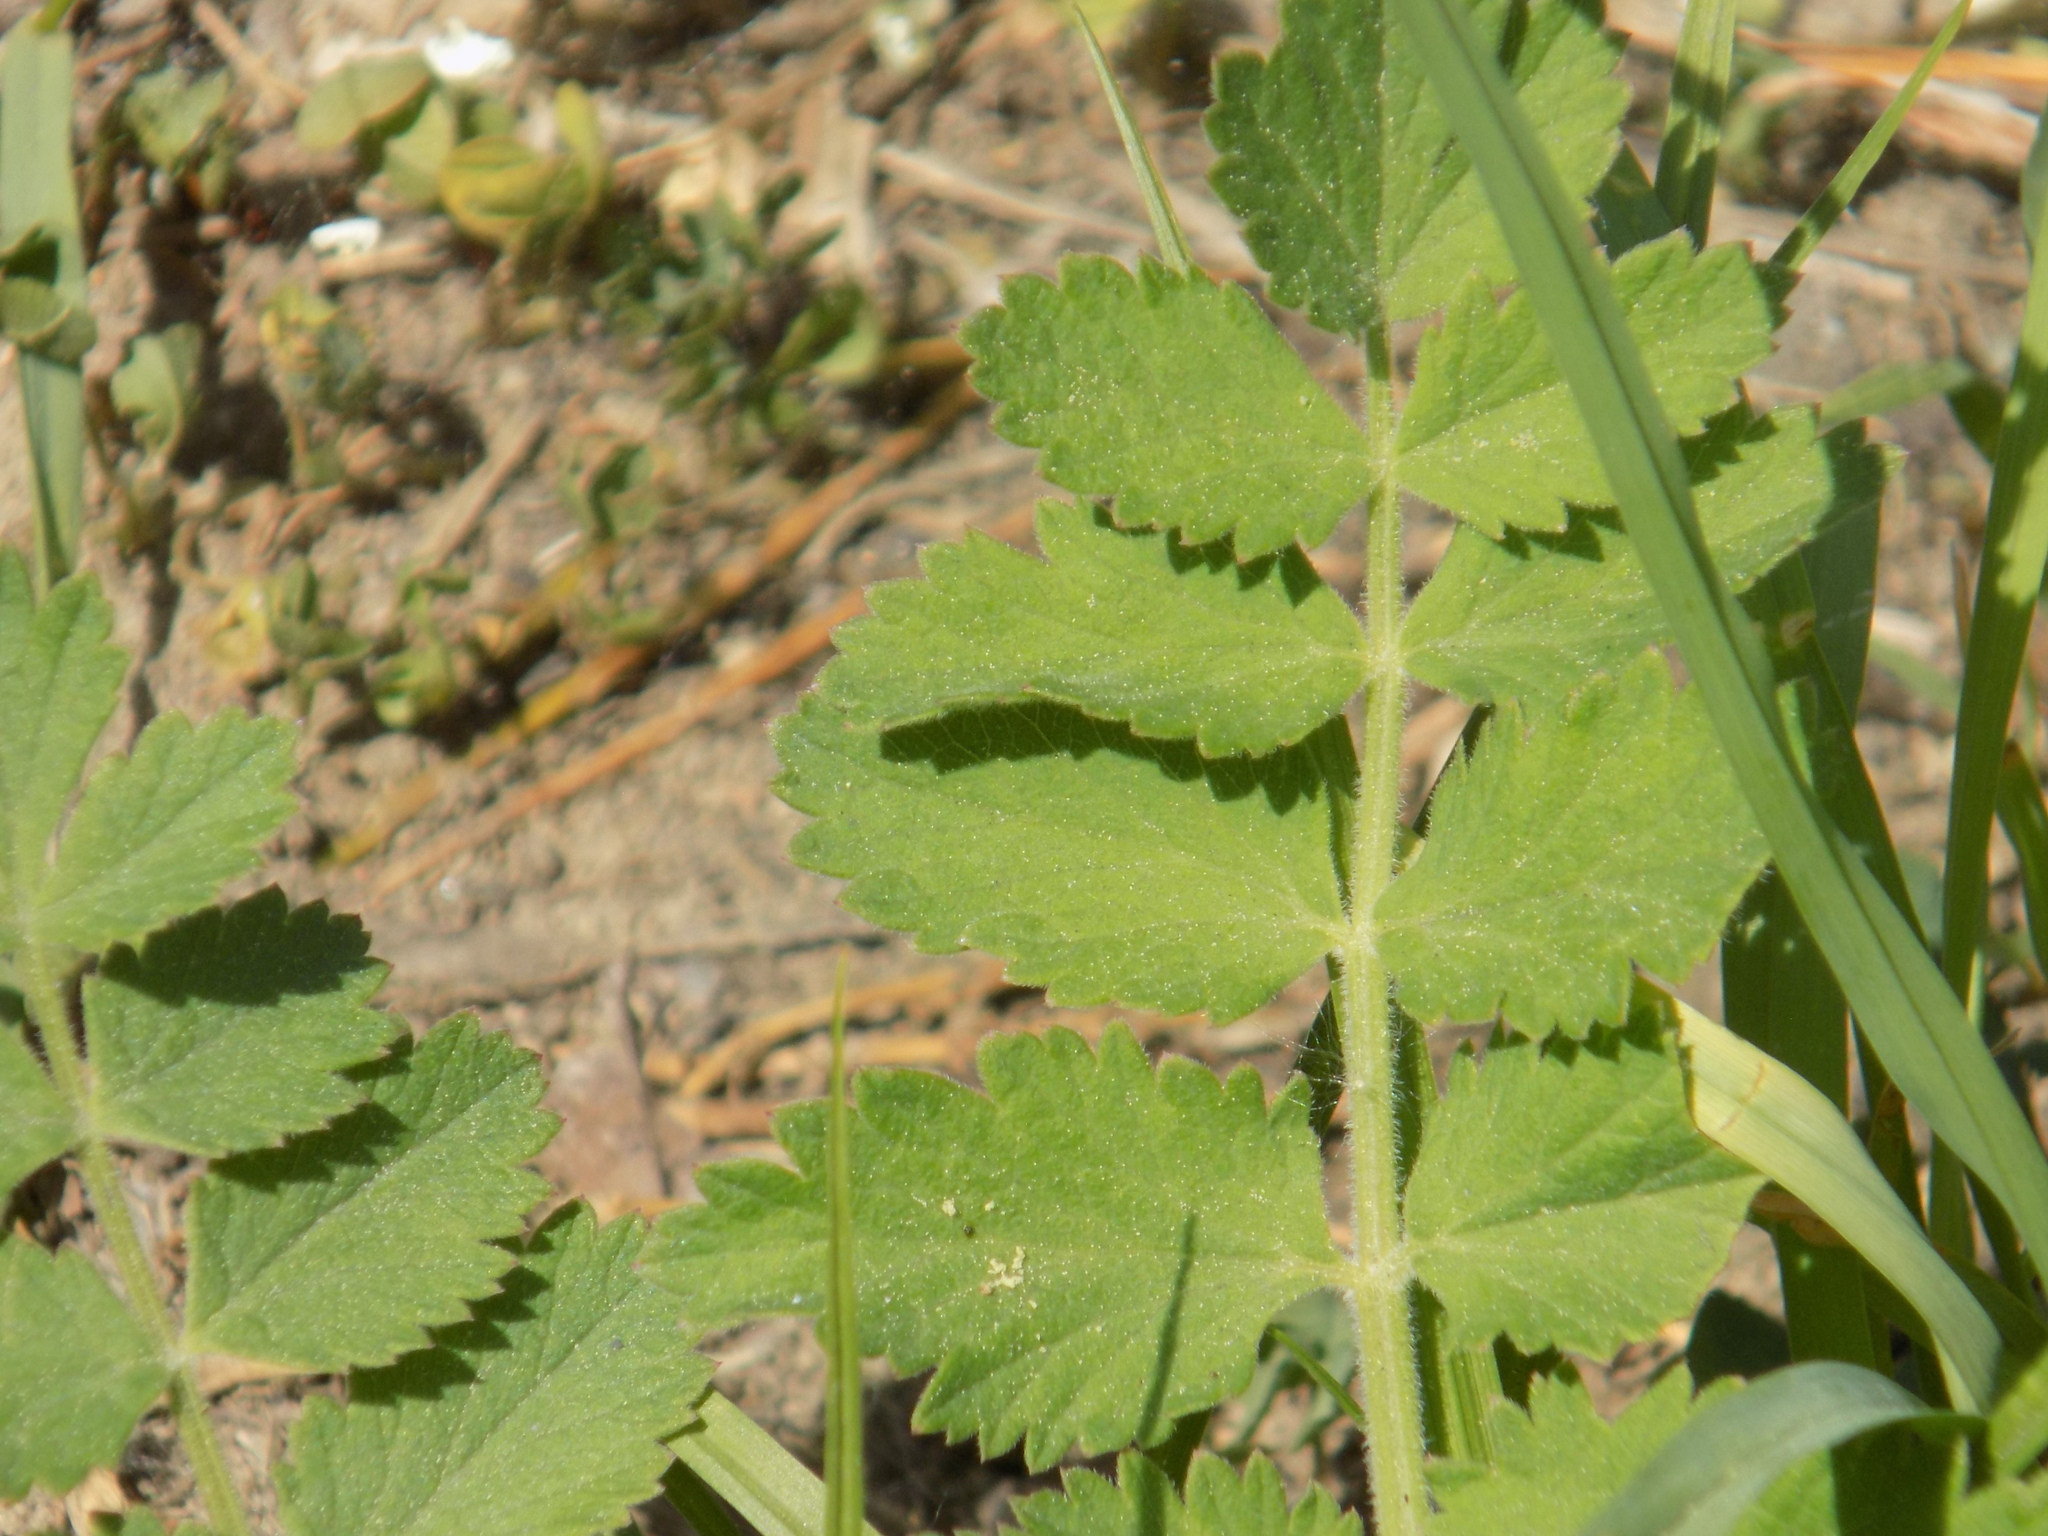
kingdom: Plantae
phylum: Tracheophyta
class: Magnoliopsida
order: Apiales
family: Apiaceae
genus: Pimpinella
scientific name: Pimpinella saxifraga
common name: Burnet-saxifrage
